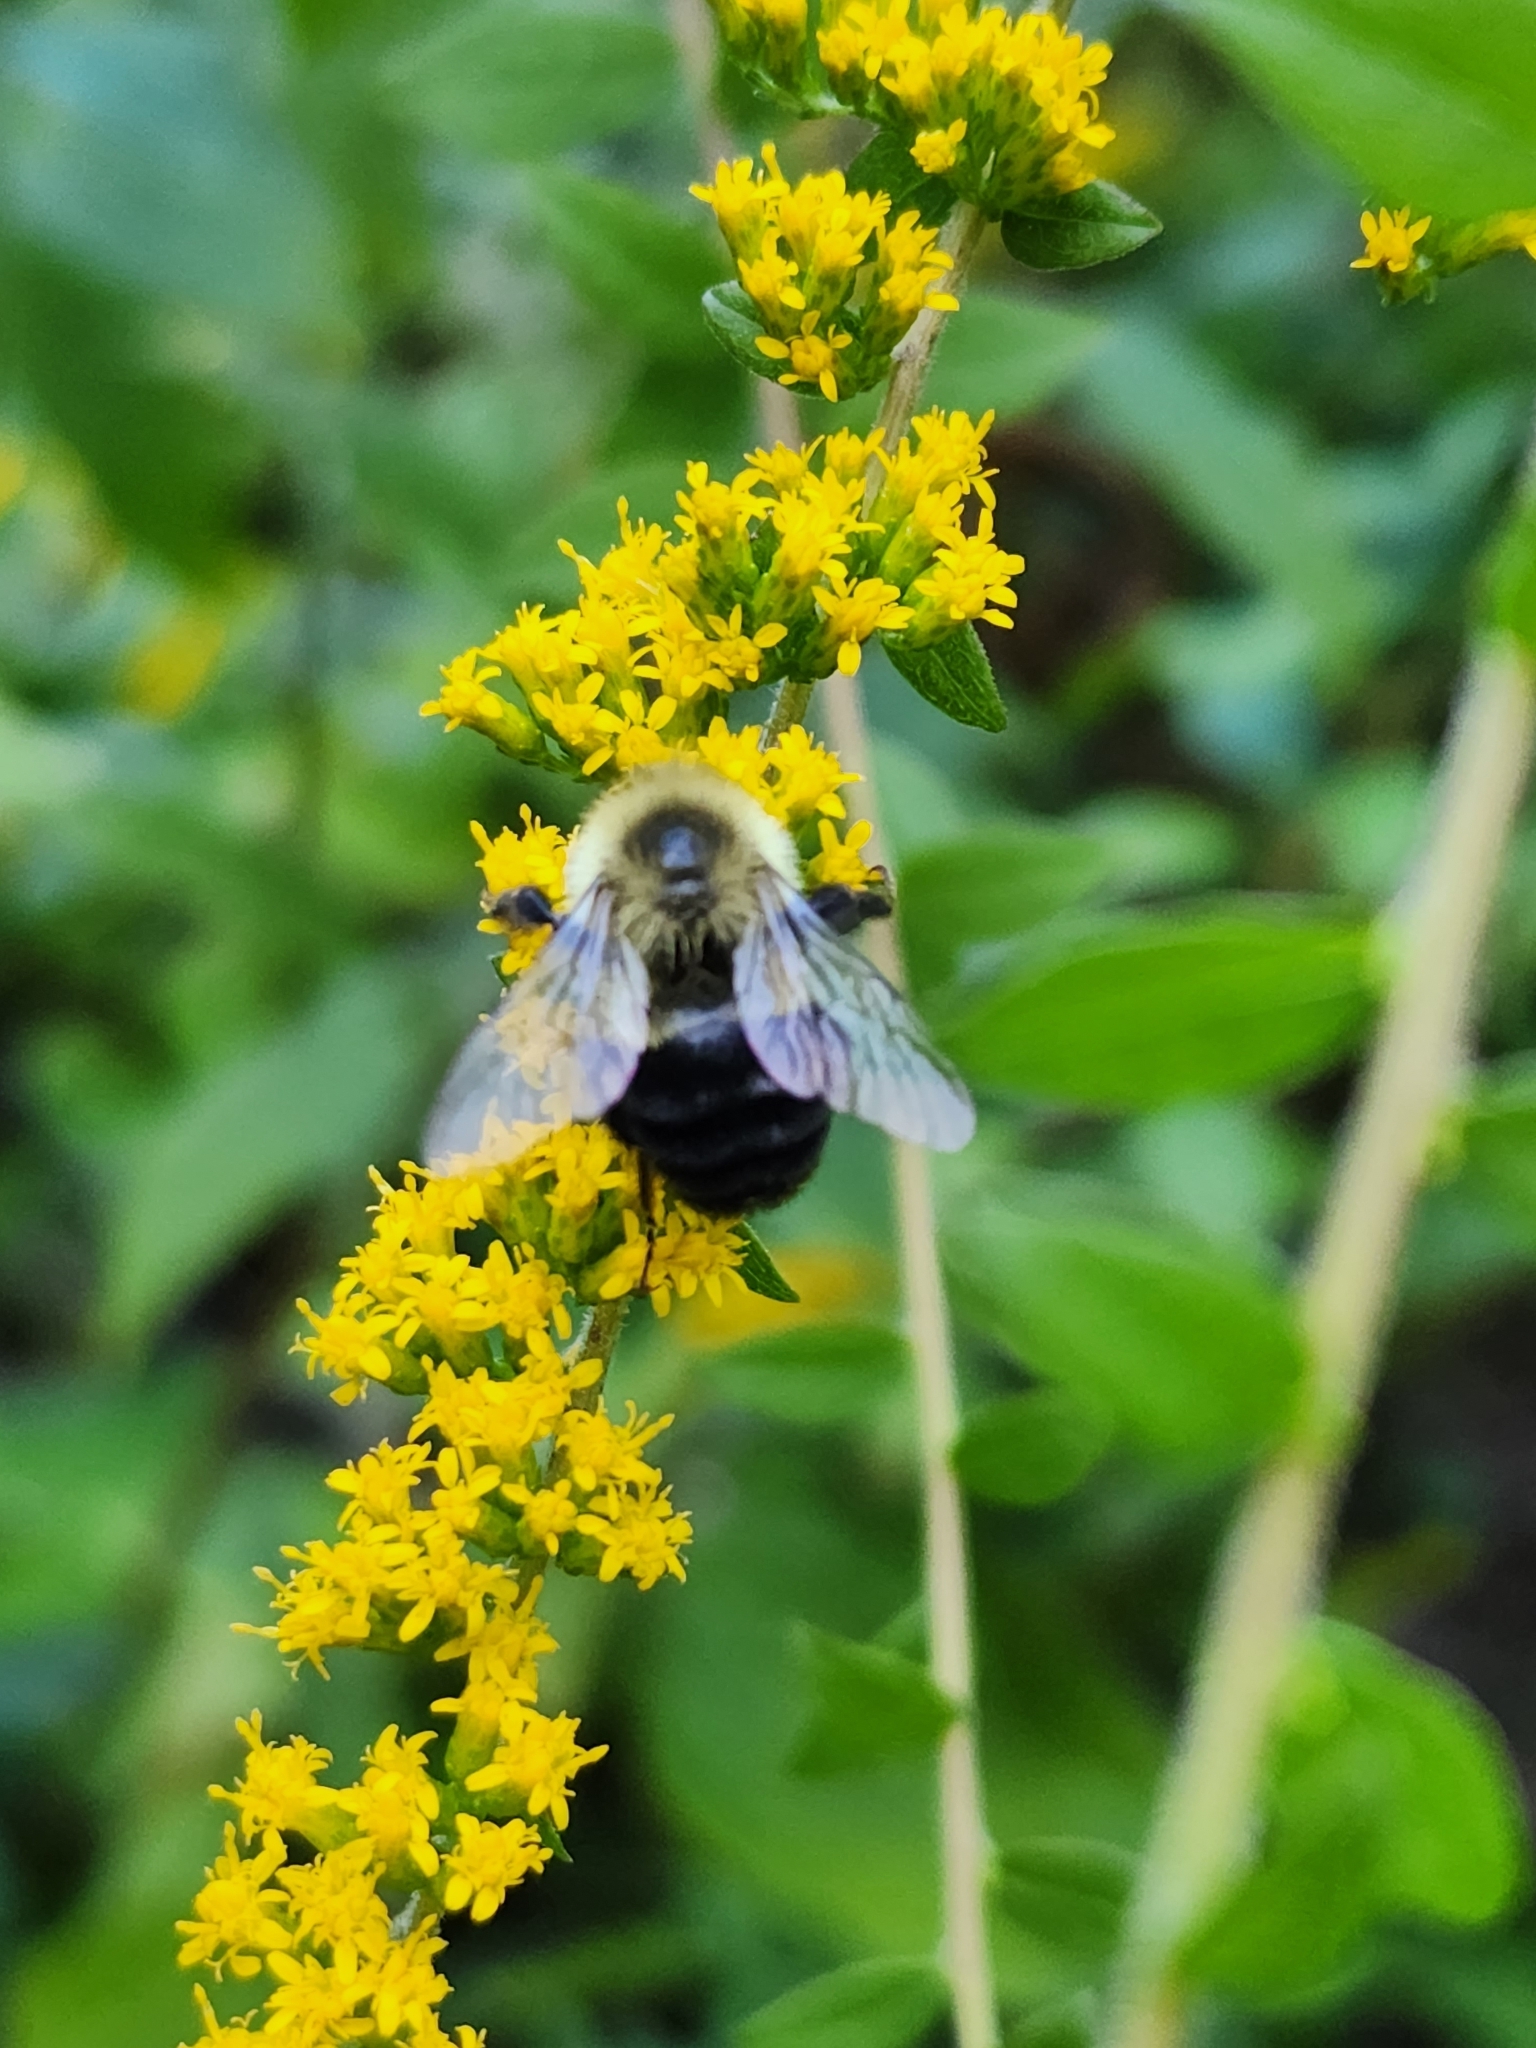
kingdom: Animalia
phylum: Arthropoda
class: Insecta
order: Hymenoptera
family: Apidae
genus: Bombus
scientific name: Bombus impatiens
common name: Common eastern bumble bee
